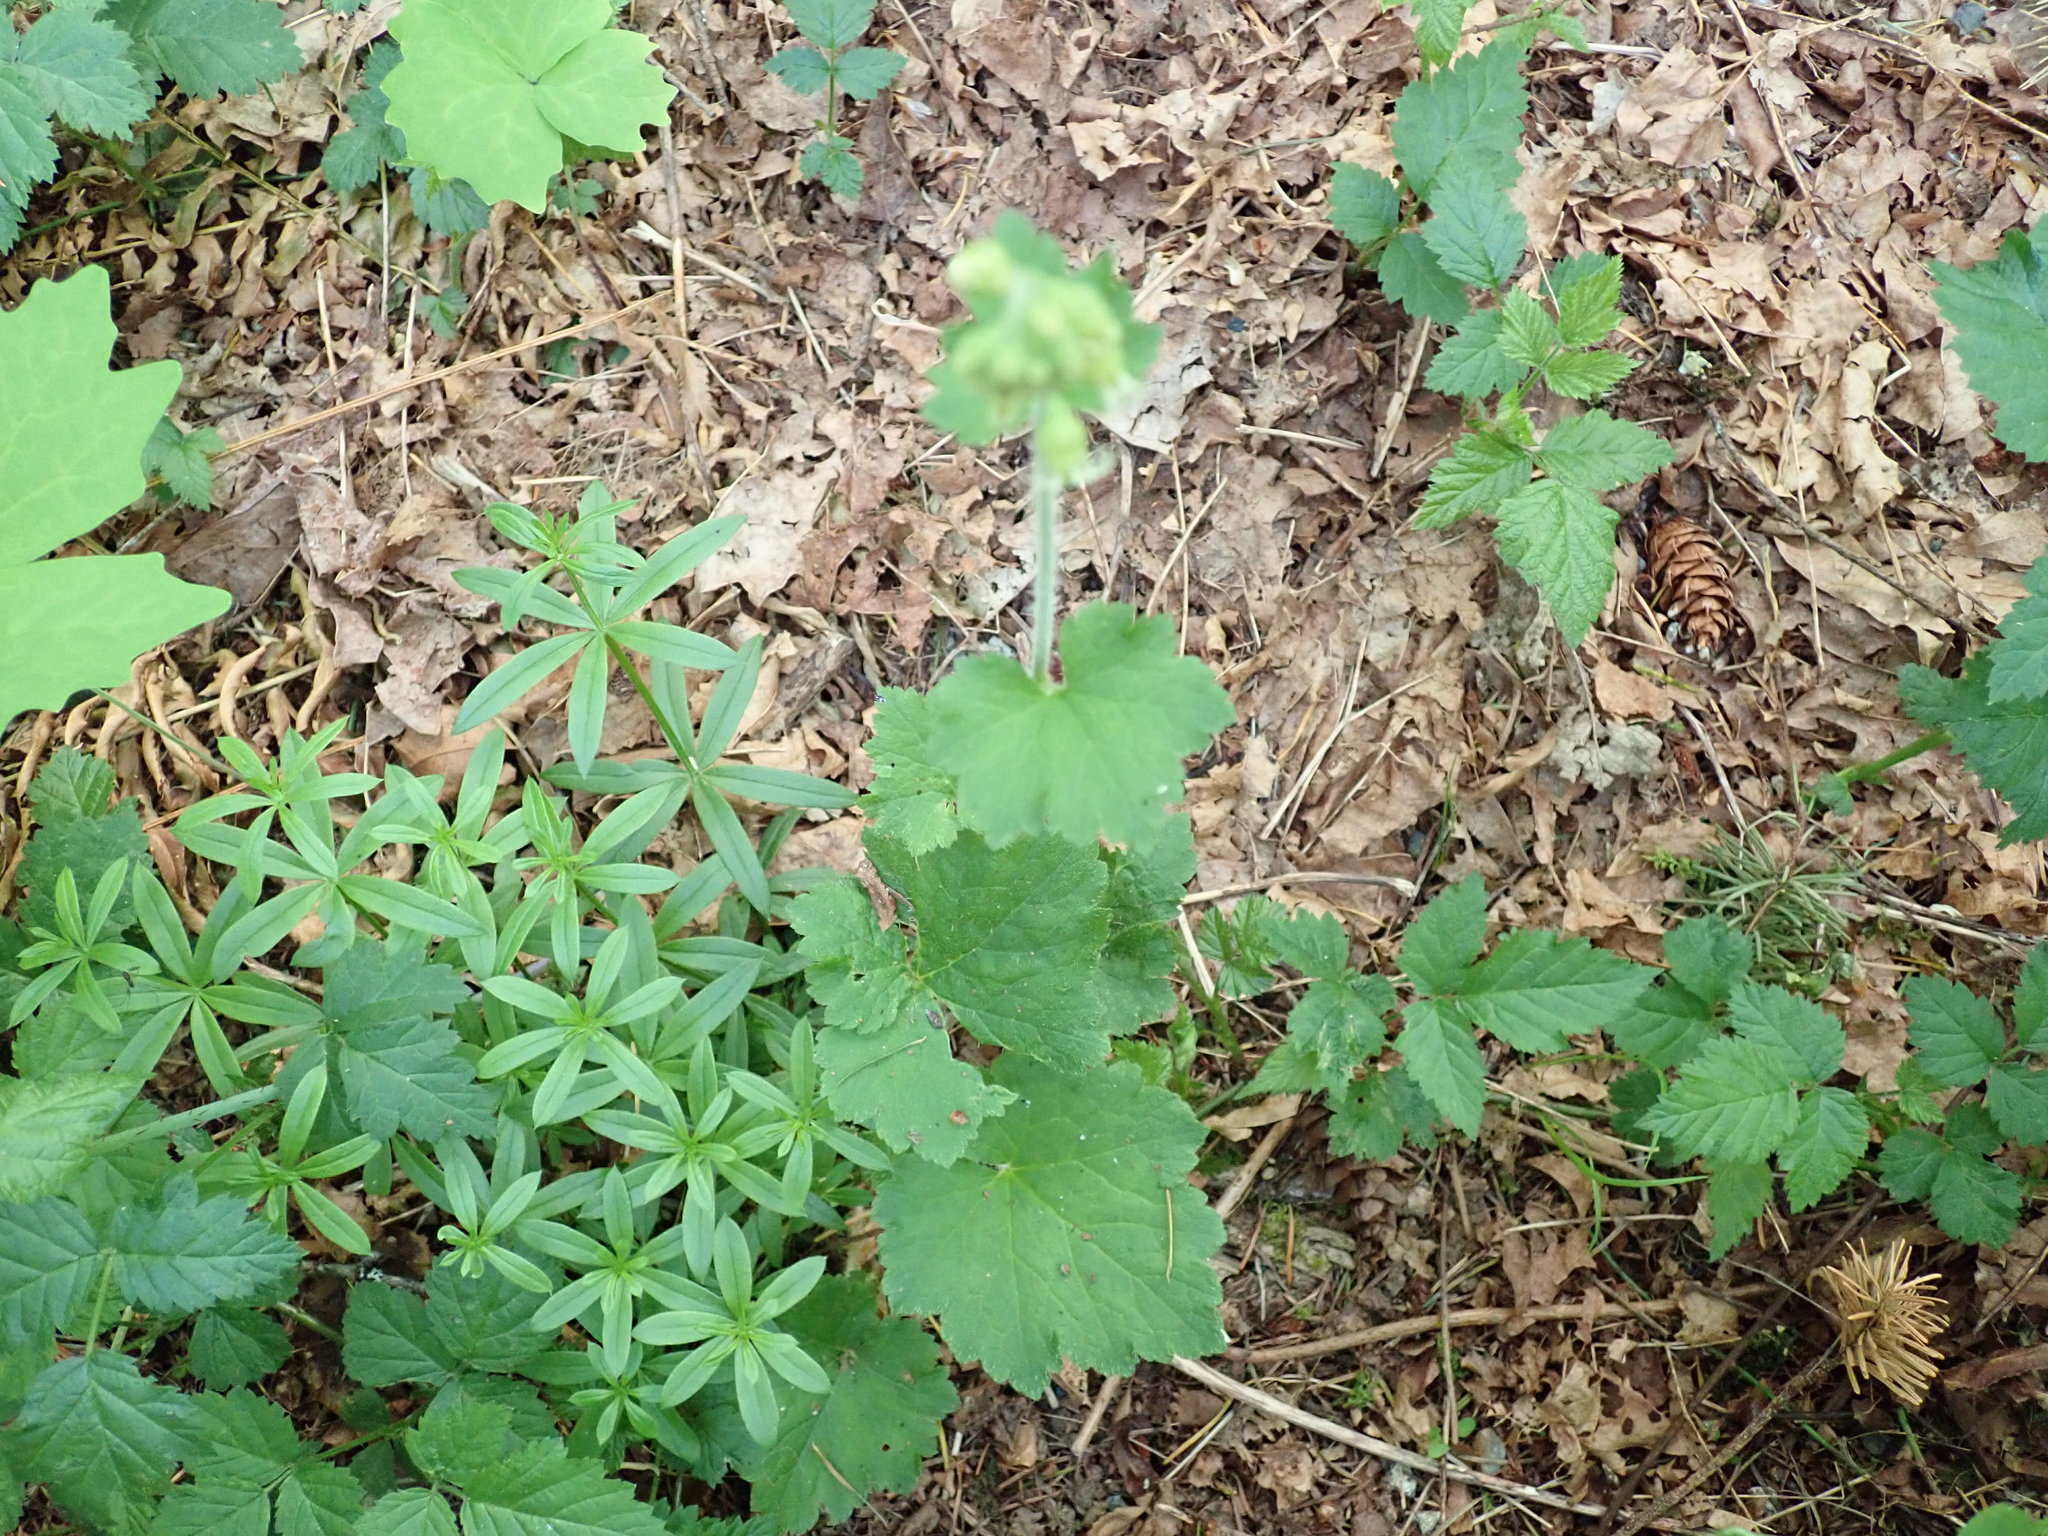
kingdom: Plantae
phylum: Tracheophyta
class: Magnoliopsida
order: Saxifragales
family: Saxifragaceae
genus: Tellima
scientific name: Tellima grandiflora
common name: Fringecups
